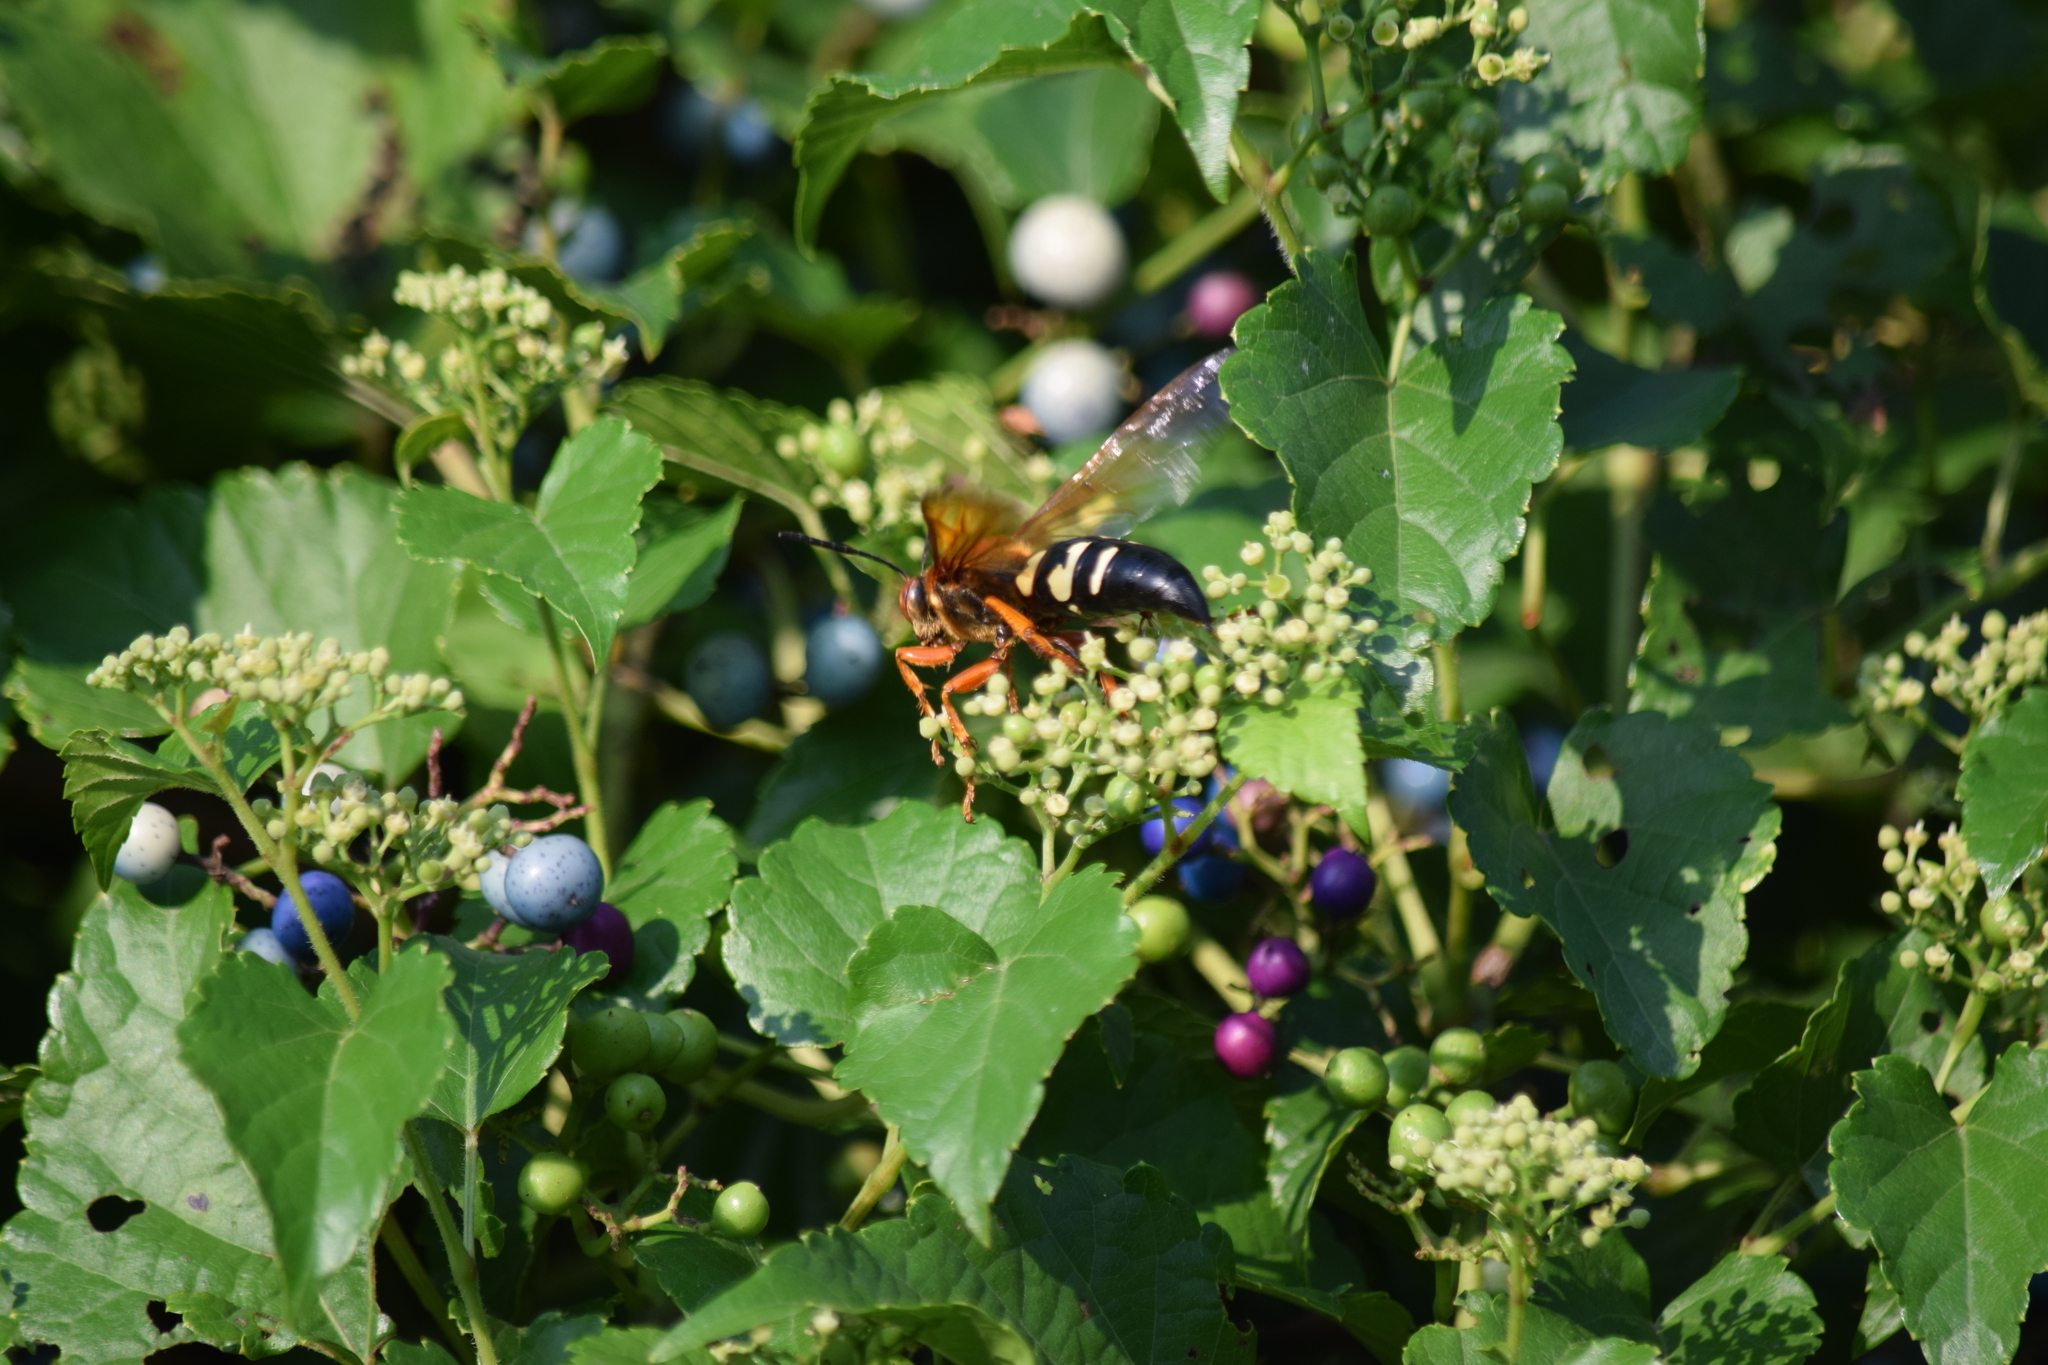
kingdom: Animalia
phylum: Arthropoda
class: Insecta
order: Hymenoptera
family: Crabronidae
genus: Sphecius
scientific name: Sphecius speciosus
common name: Cicada killer
